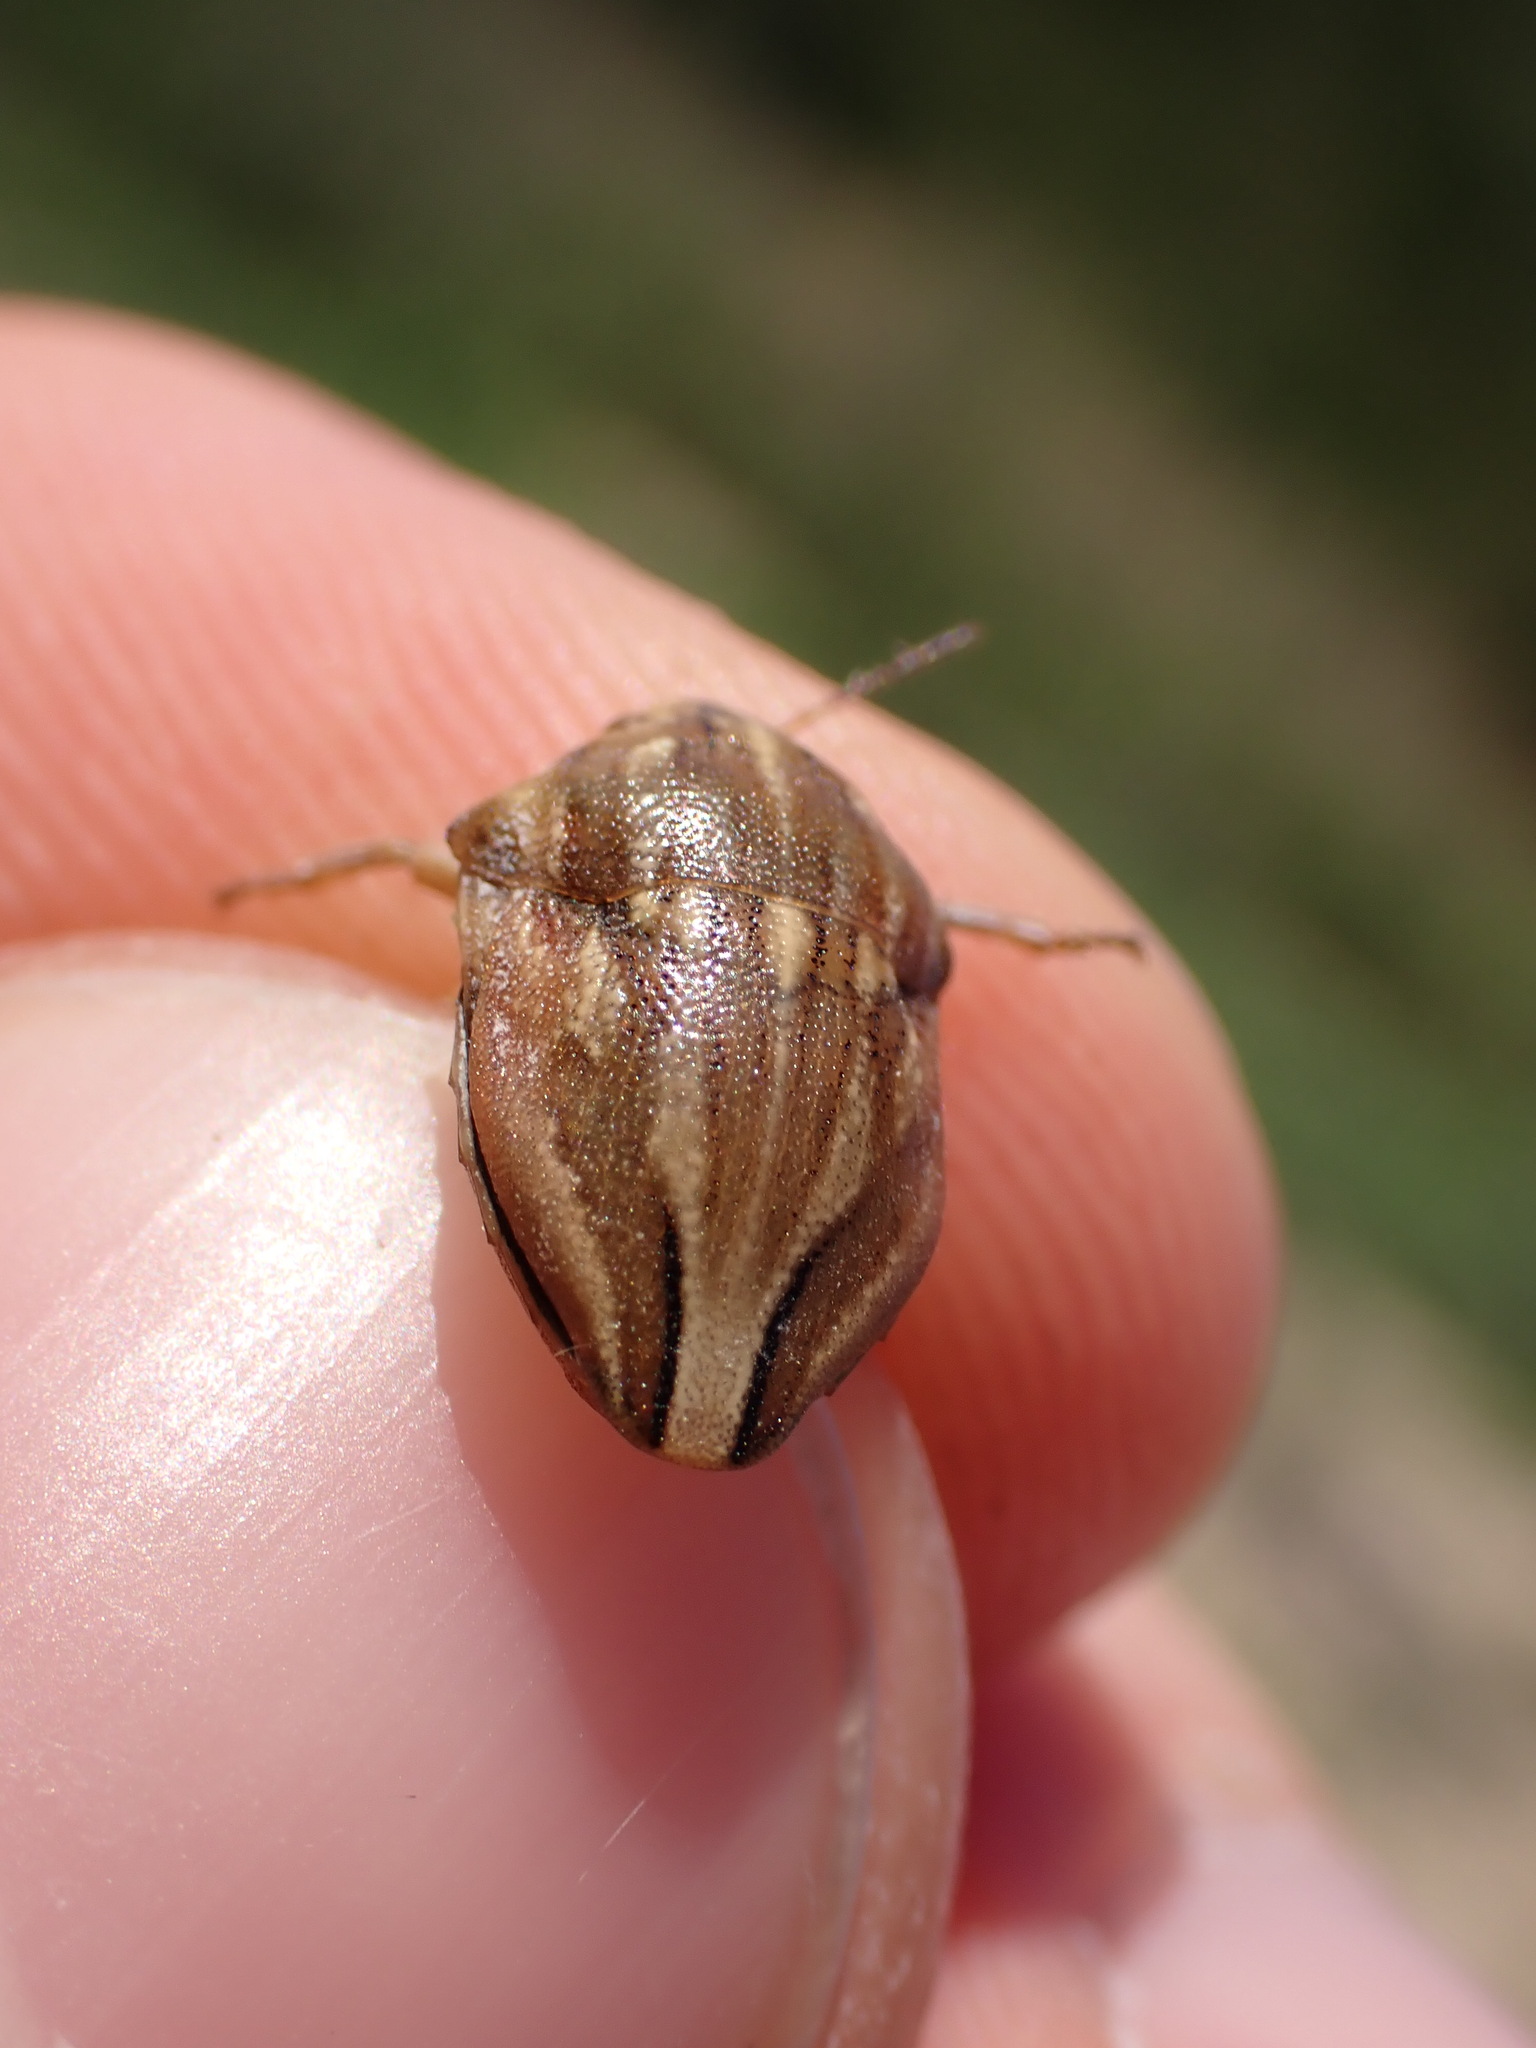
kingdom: Animalia
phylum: Arthropoda
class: Insecta
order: Hemiptera
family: Scutelleridae
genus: Odontotarsus
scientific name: Odontotarsus purpureolineatus
